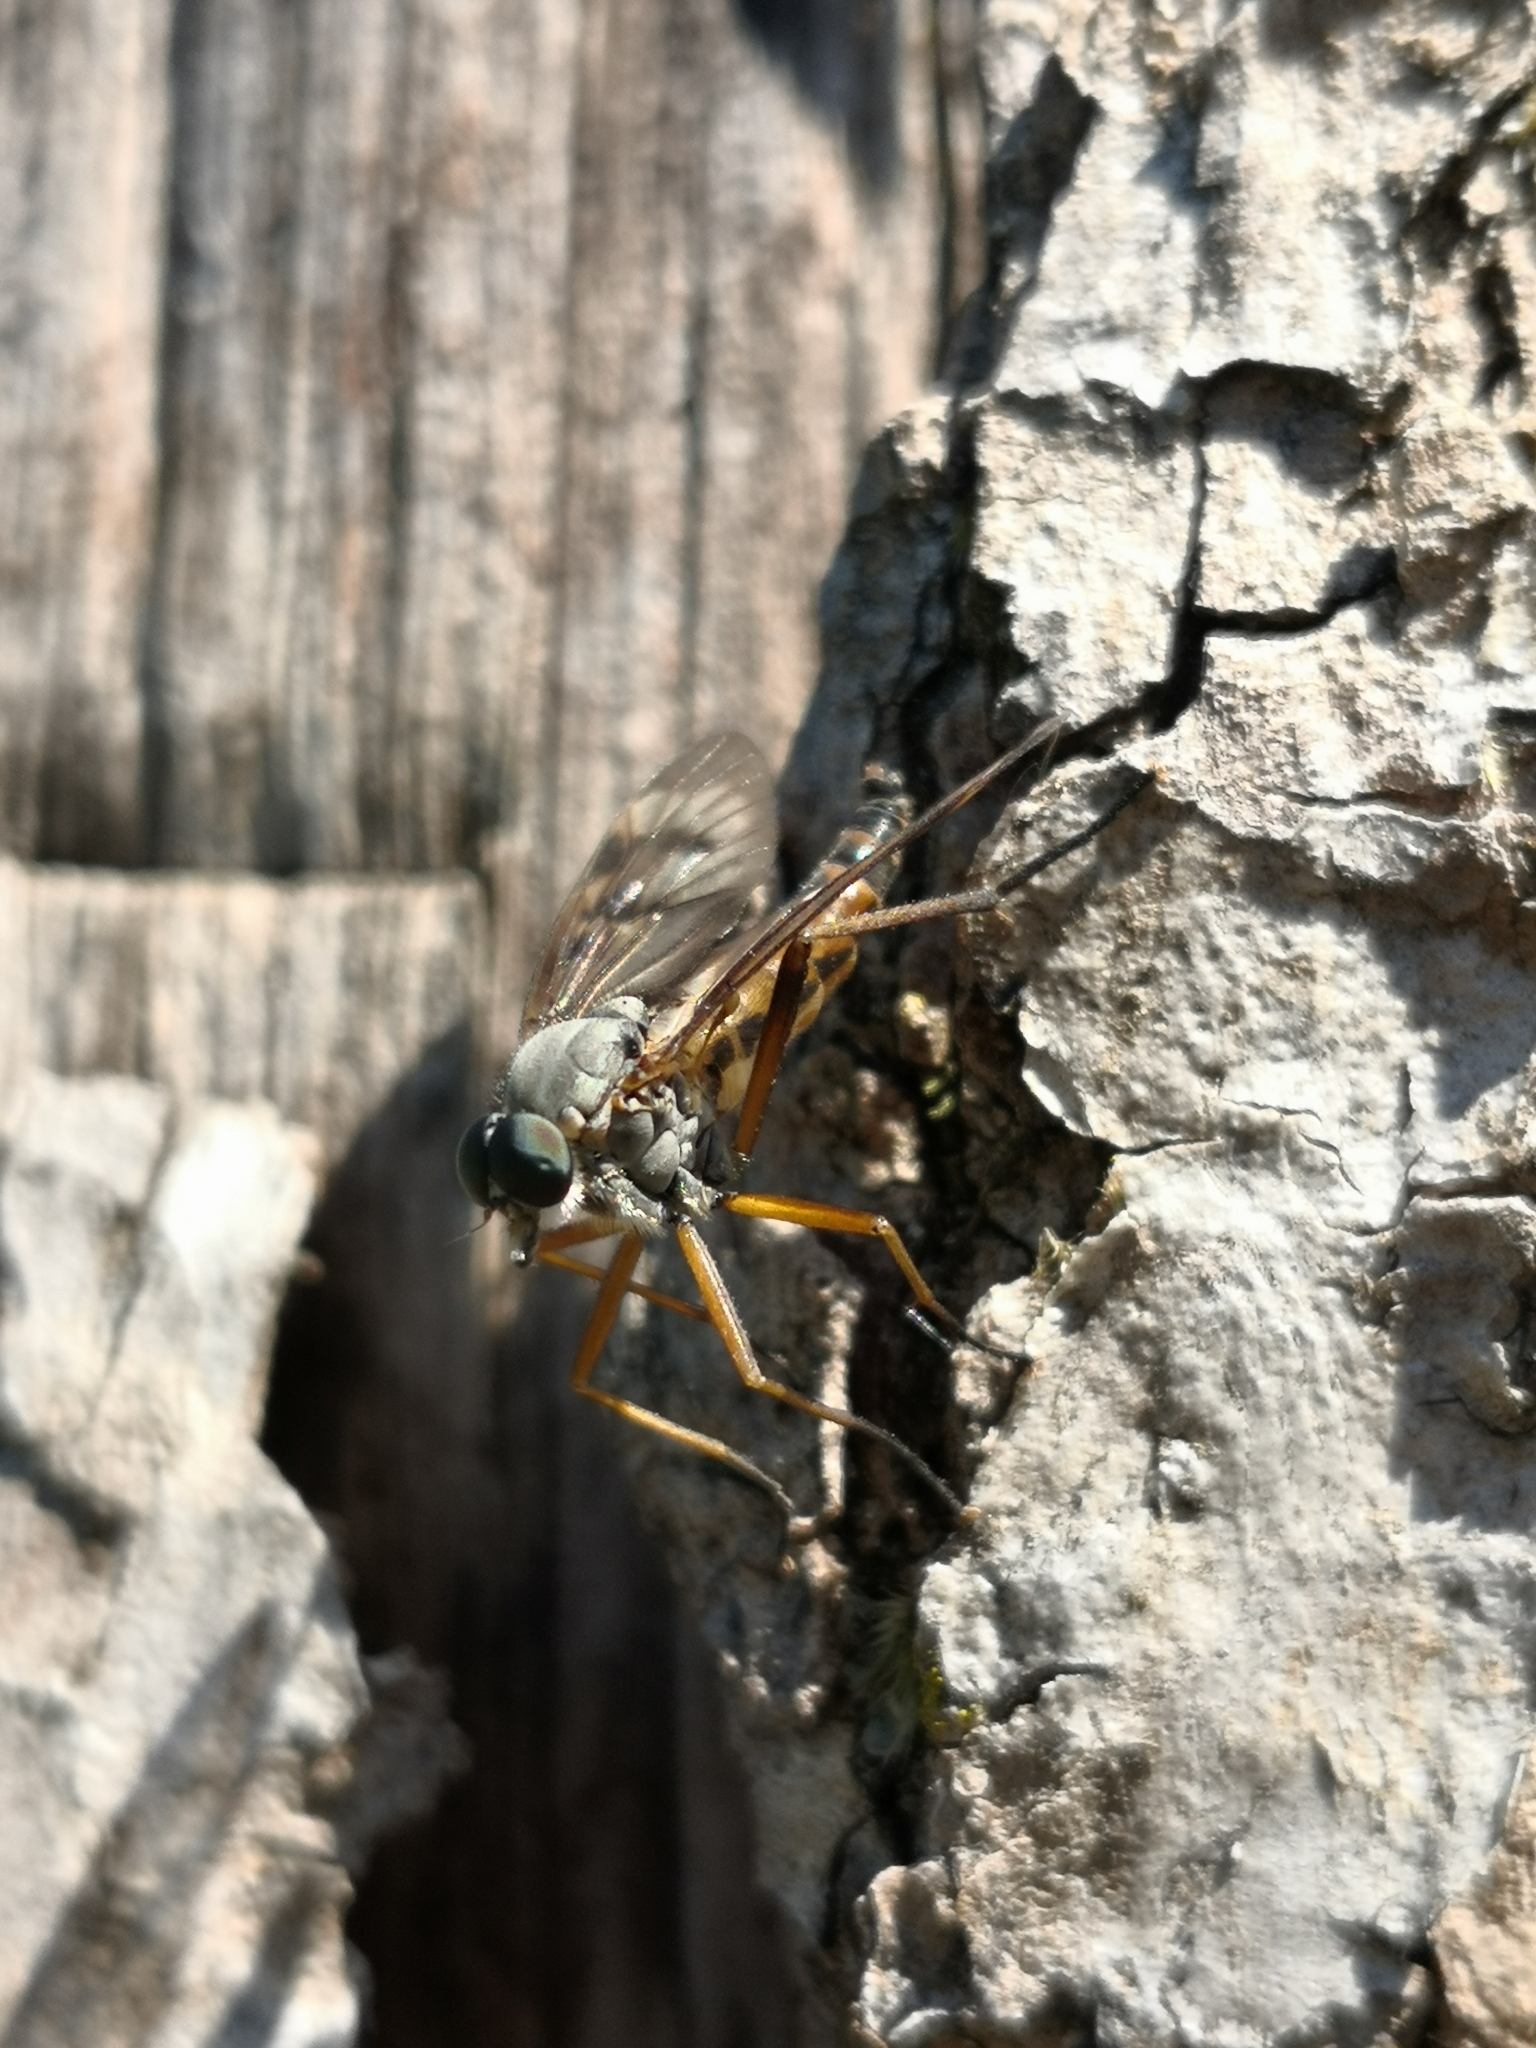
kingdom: Animalia
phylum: Arthropoda
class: Insecta
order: Diptera
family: Rhagionidae
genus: Rhagio
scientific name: Rhagio scolopacea
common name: Downlooker snipefly
